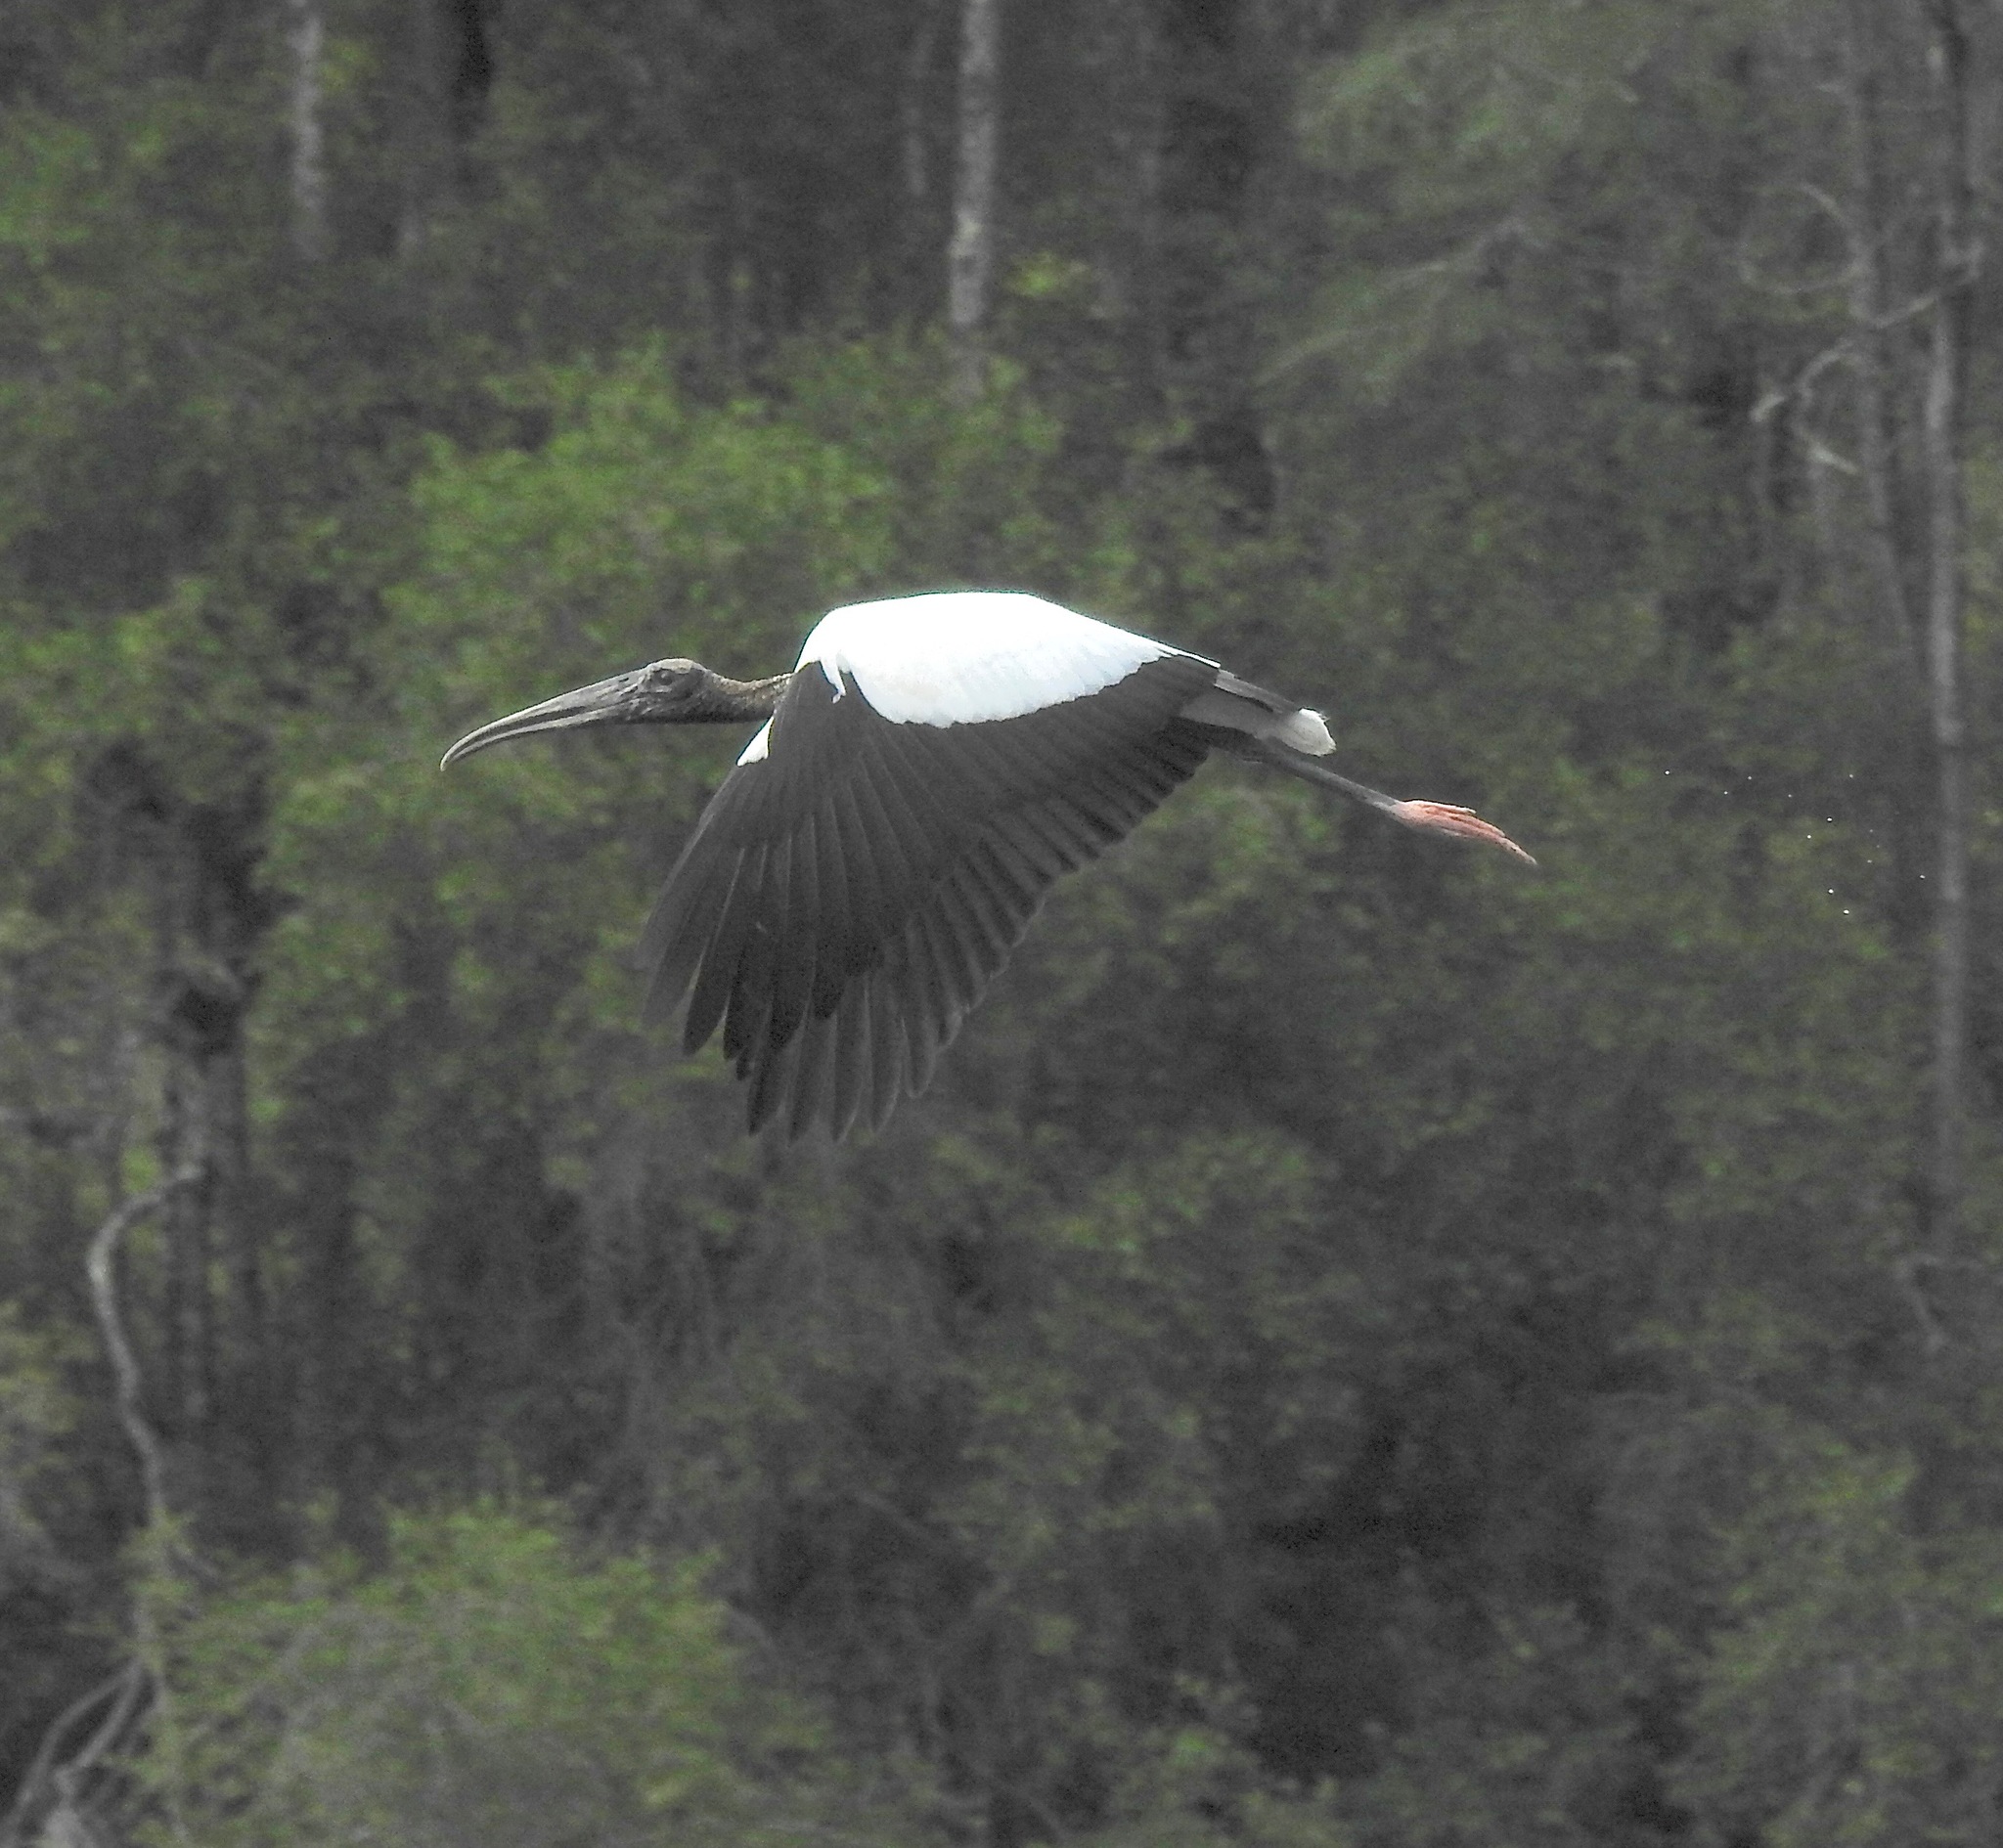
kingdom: Animalia
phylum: Chordata
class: Aves
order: Ciconiiformes
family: Ciconiidae
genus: Mycteria
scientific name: Mycteria americana
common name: Wood stork
